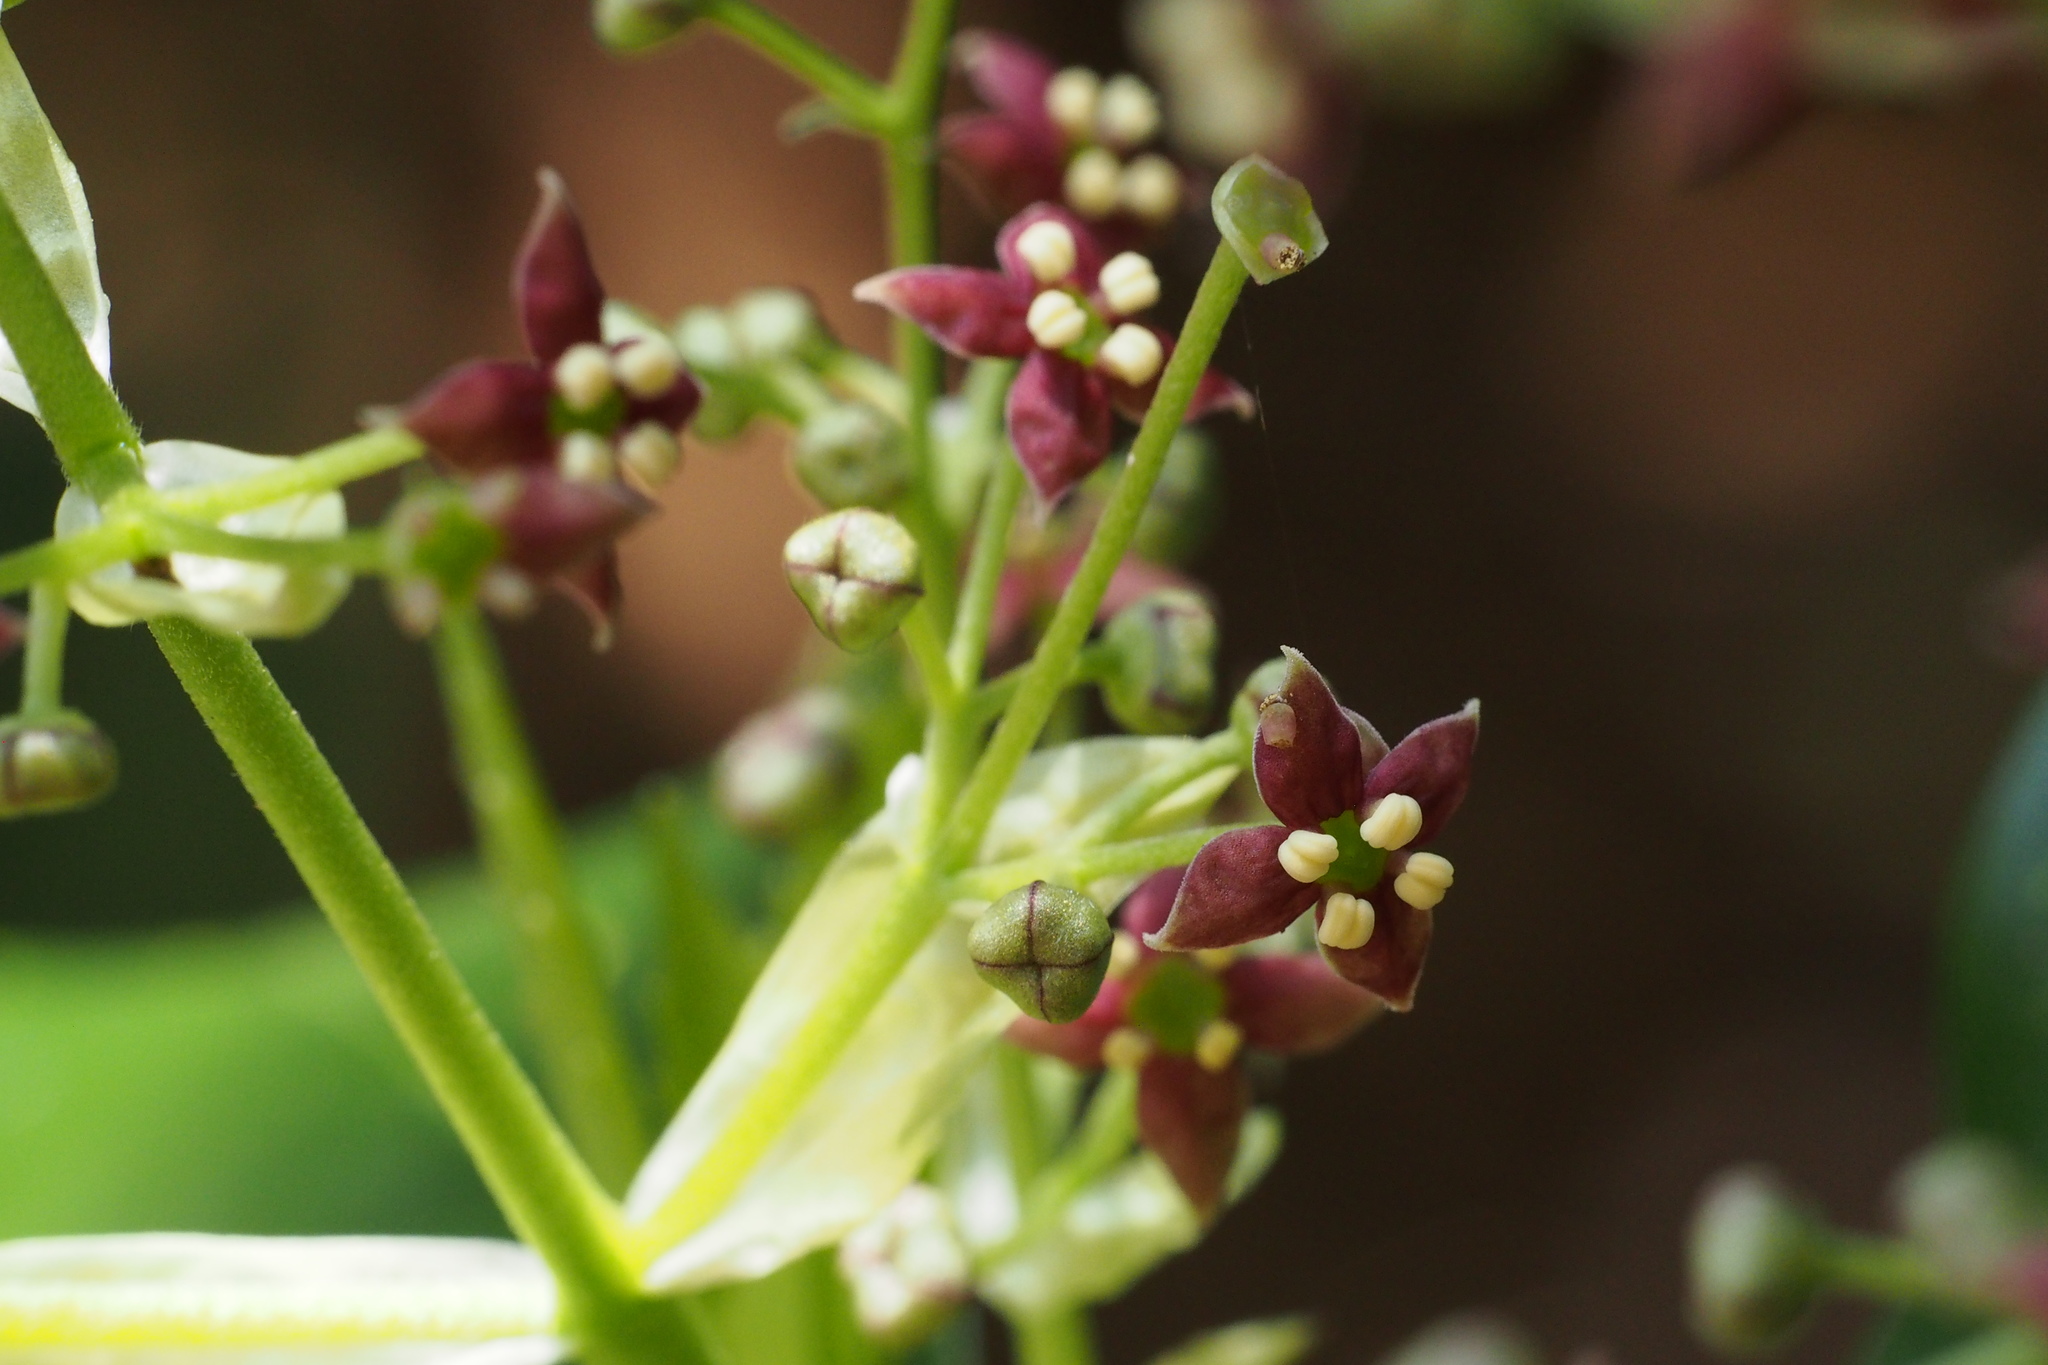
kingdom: Plantae
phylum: Tracheophyta
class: Magnoliopsida
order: Garryales
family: Garryaceae
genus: Aucuba
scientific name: Aucuba japonica
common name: Spotted-laurel
